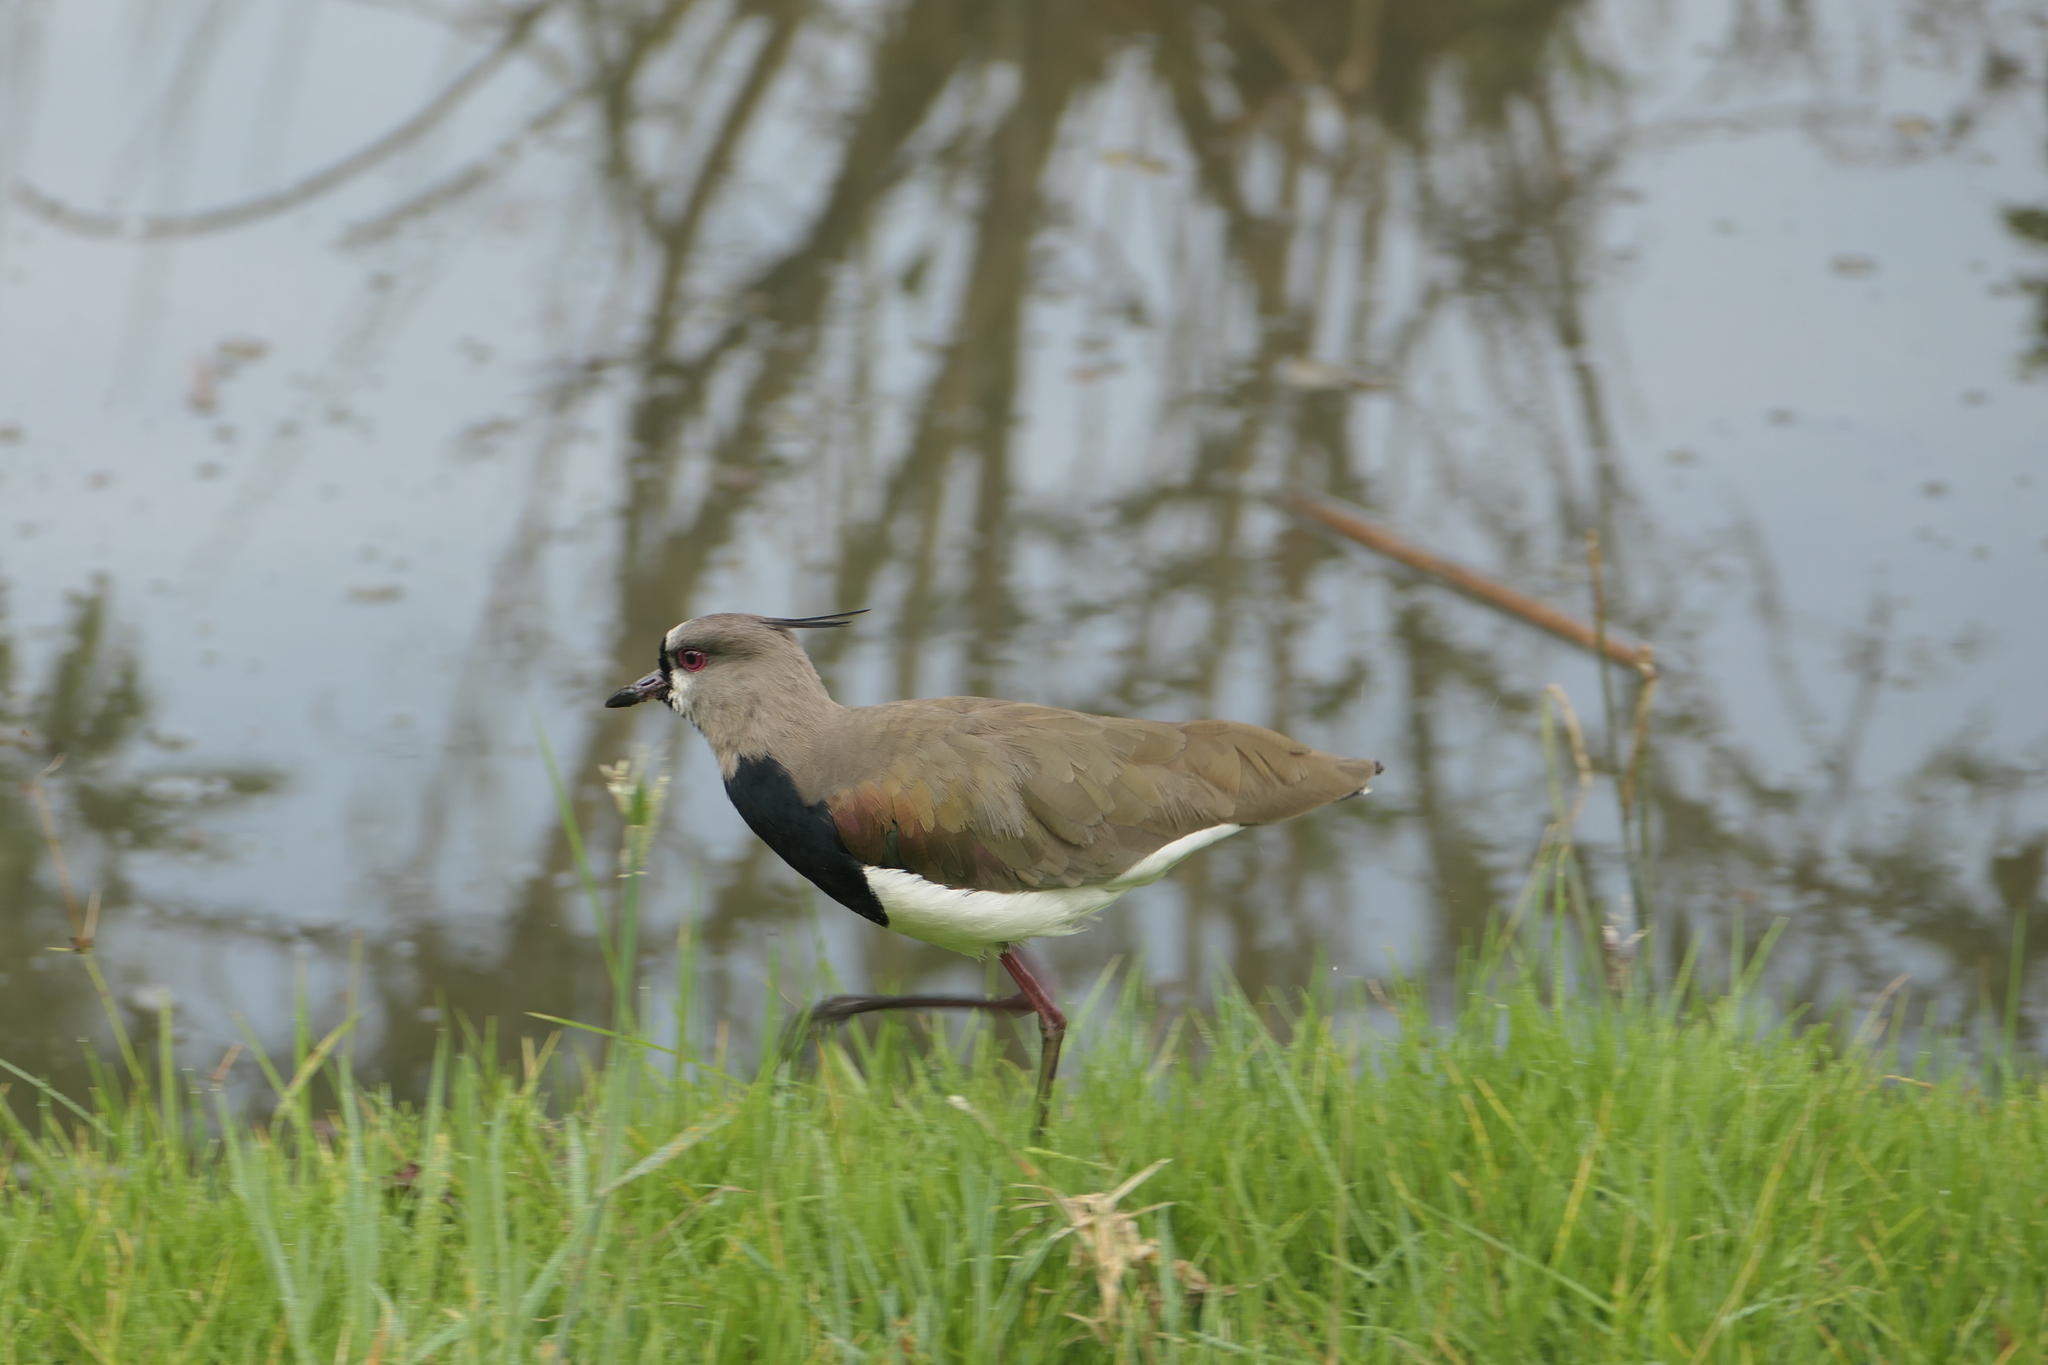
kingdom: Animalia
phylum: Chordata
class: Aves
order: Charadriiformes
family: Charadriidae
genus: Vanellus
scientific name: Vanellus chilensis
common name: Southern lapwing
